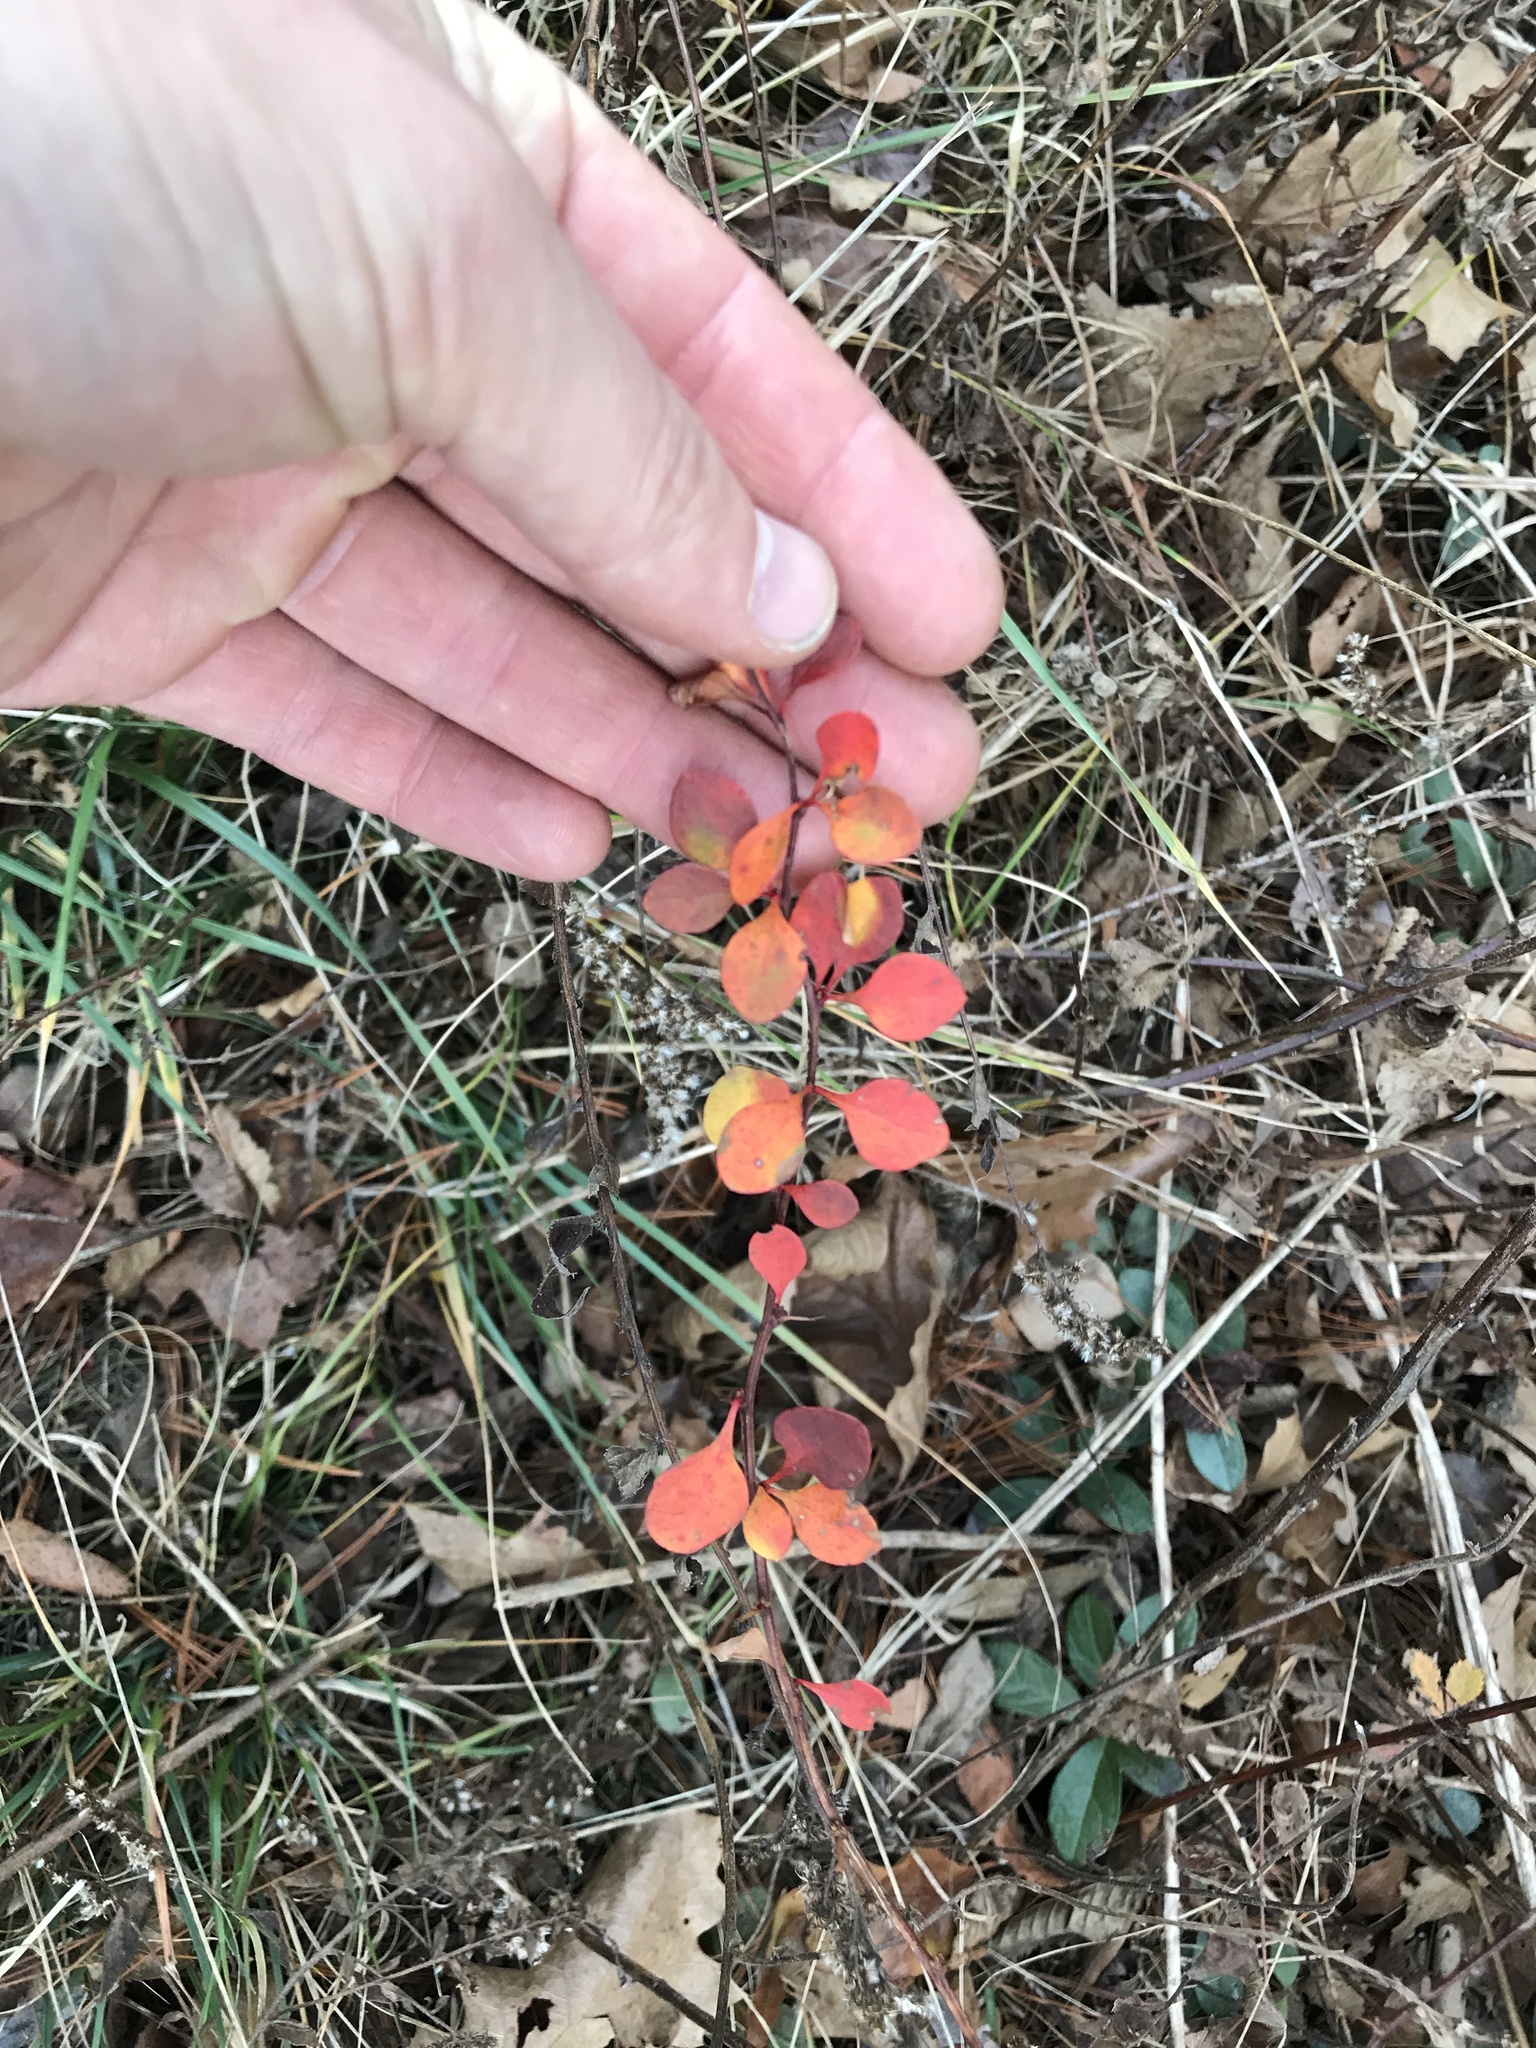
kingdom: Plantae
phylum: Tracheophyta
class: Magnoliopsida
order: Ranunculales
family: Berberidaceae
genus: Berberis
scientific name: Berberis thunbergii
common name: Japanese barberry
